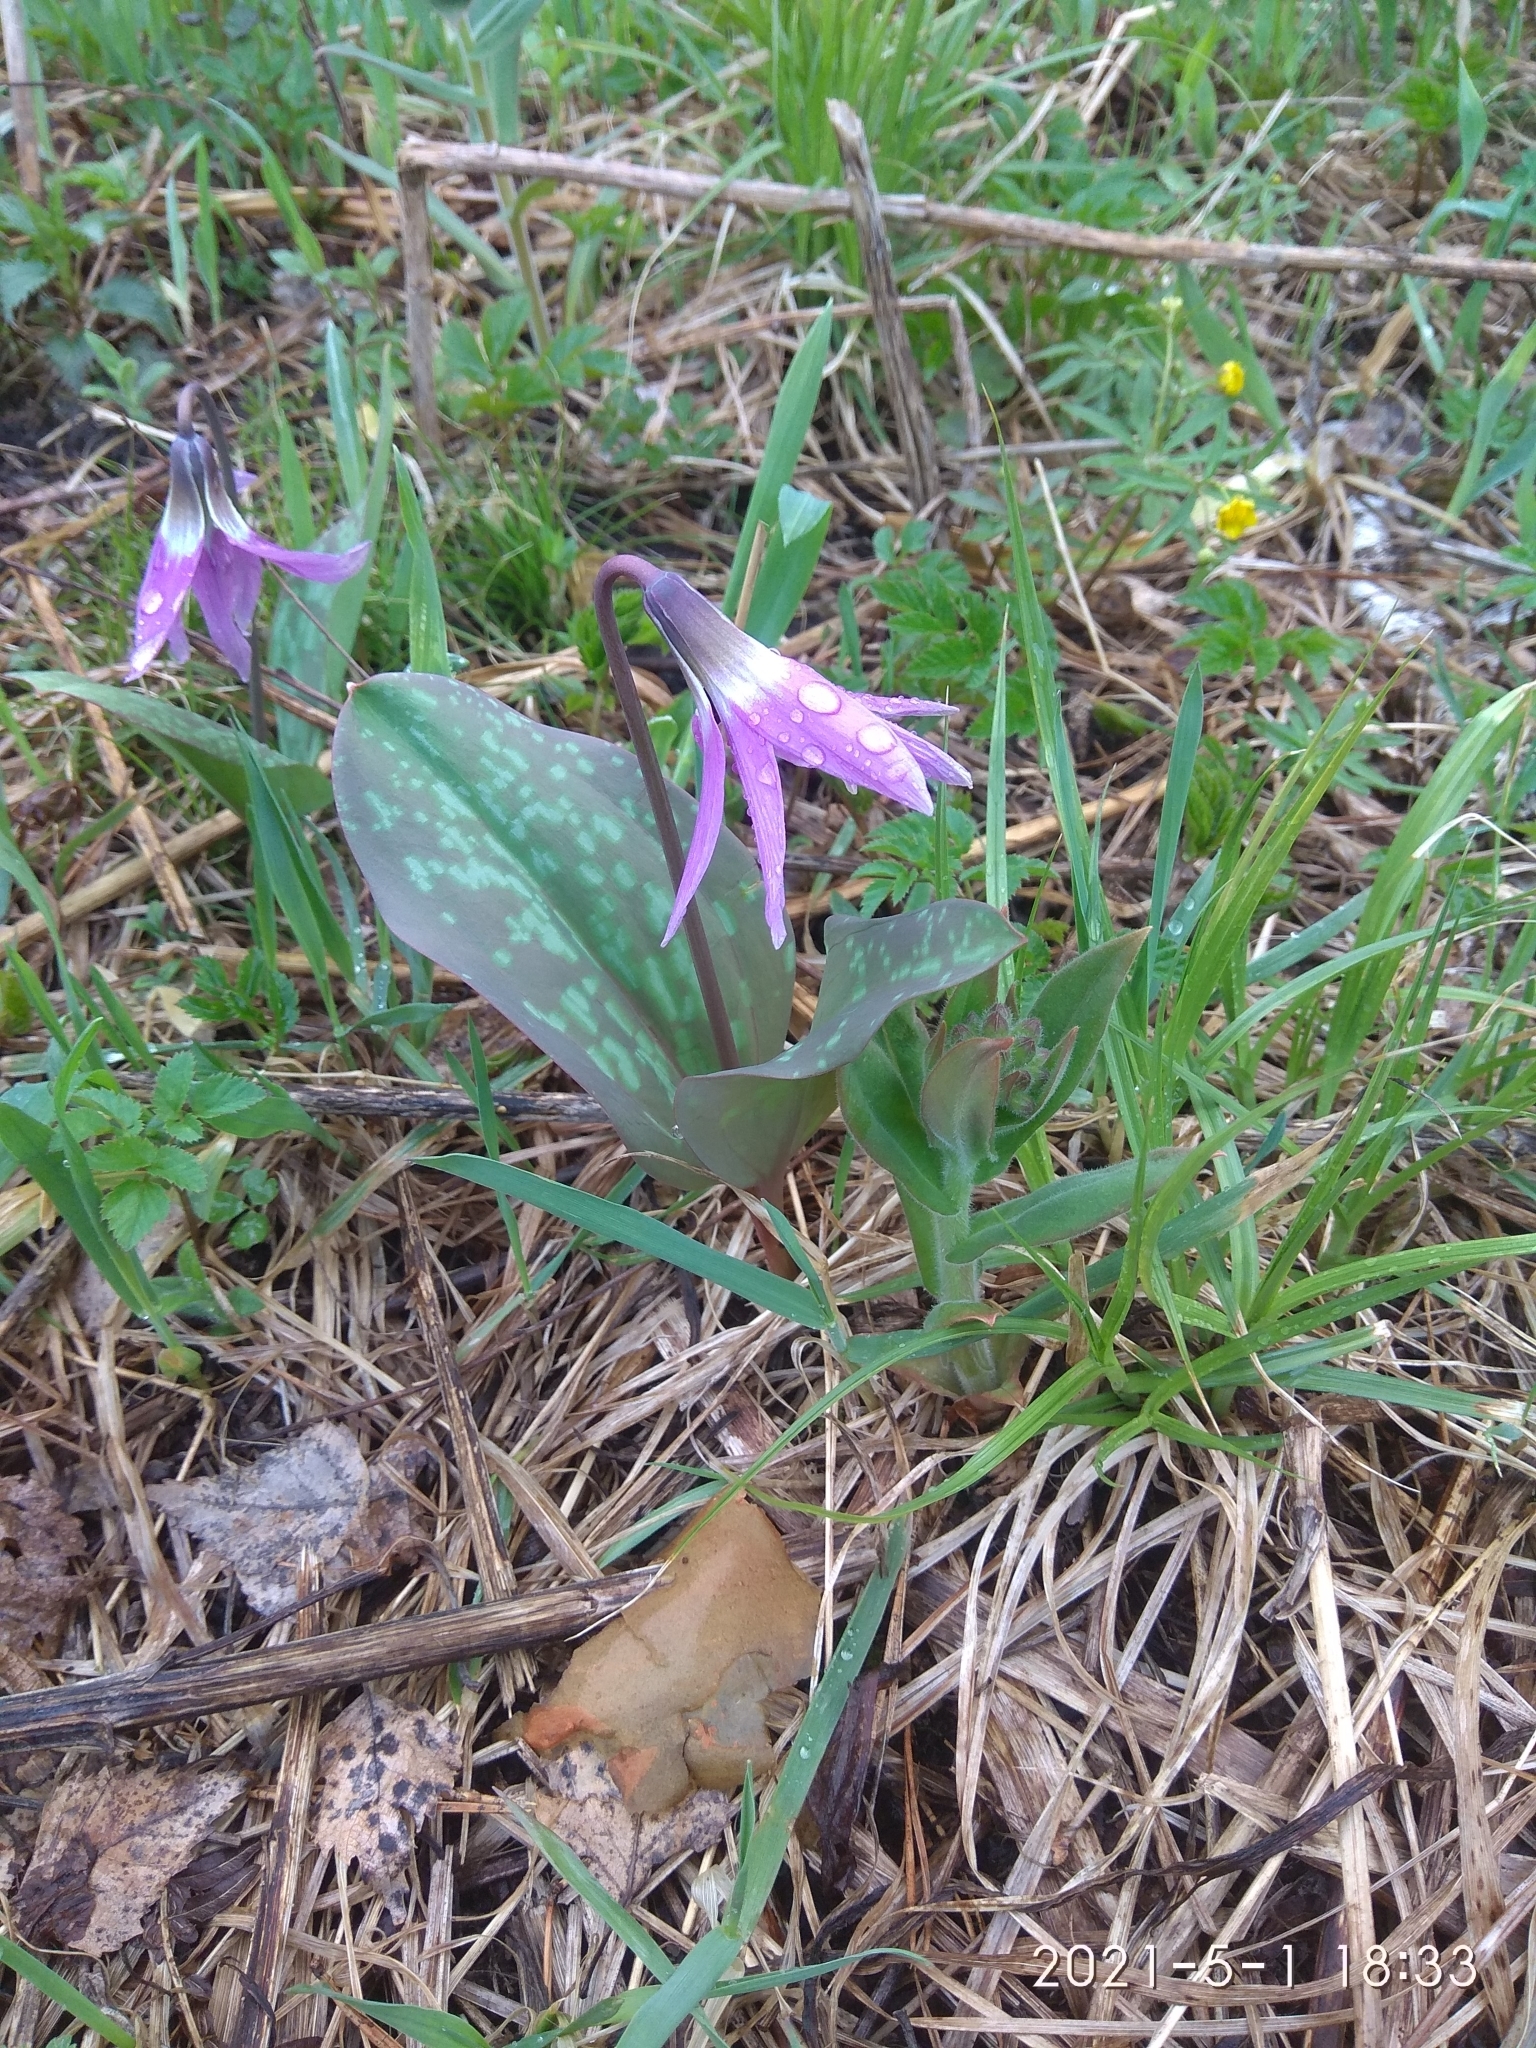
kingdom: Plantae
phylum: Tracheophyta
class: Liliopsida
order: Liliales
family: Liliaceae
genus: Erythronium
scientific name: Erythronium sulevii
